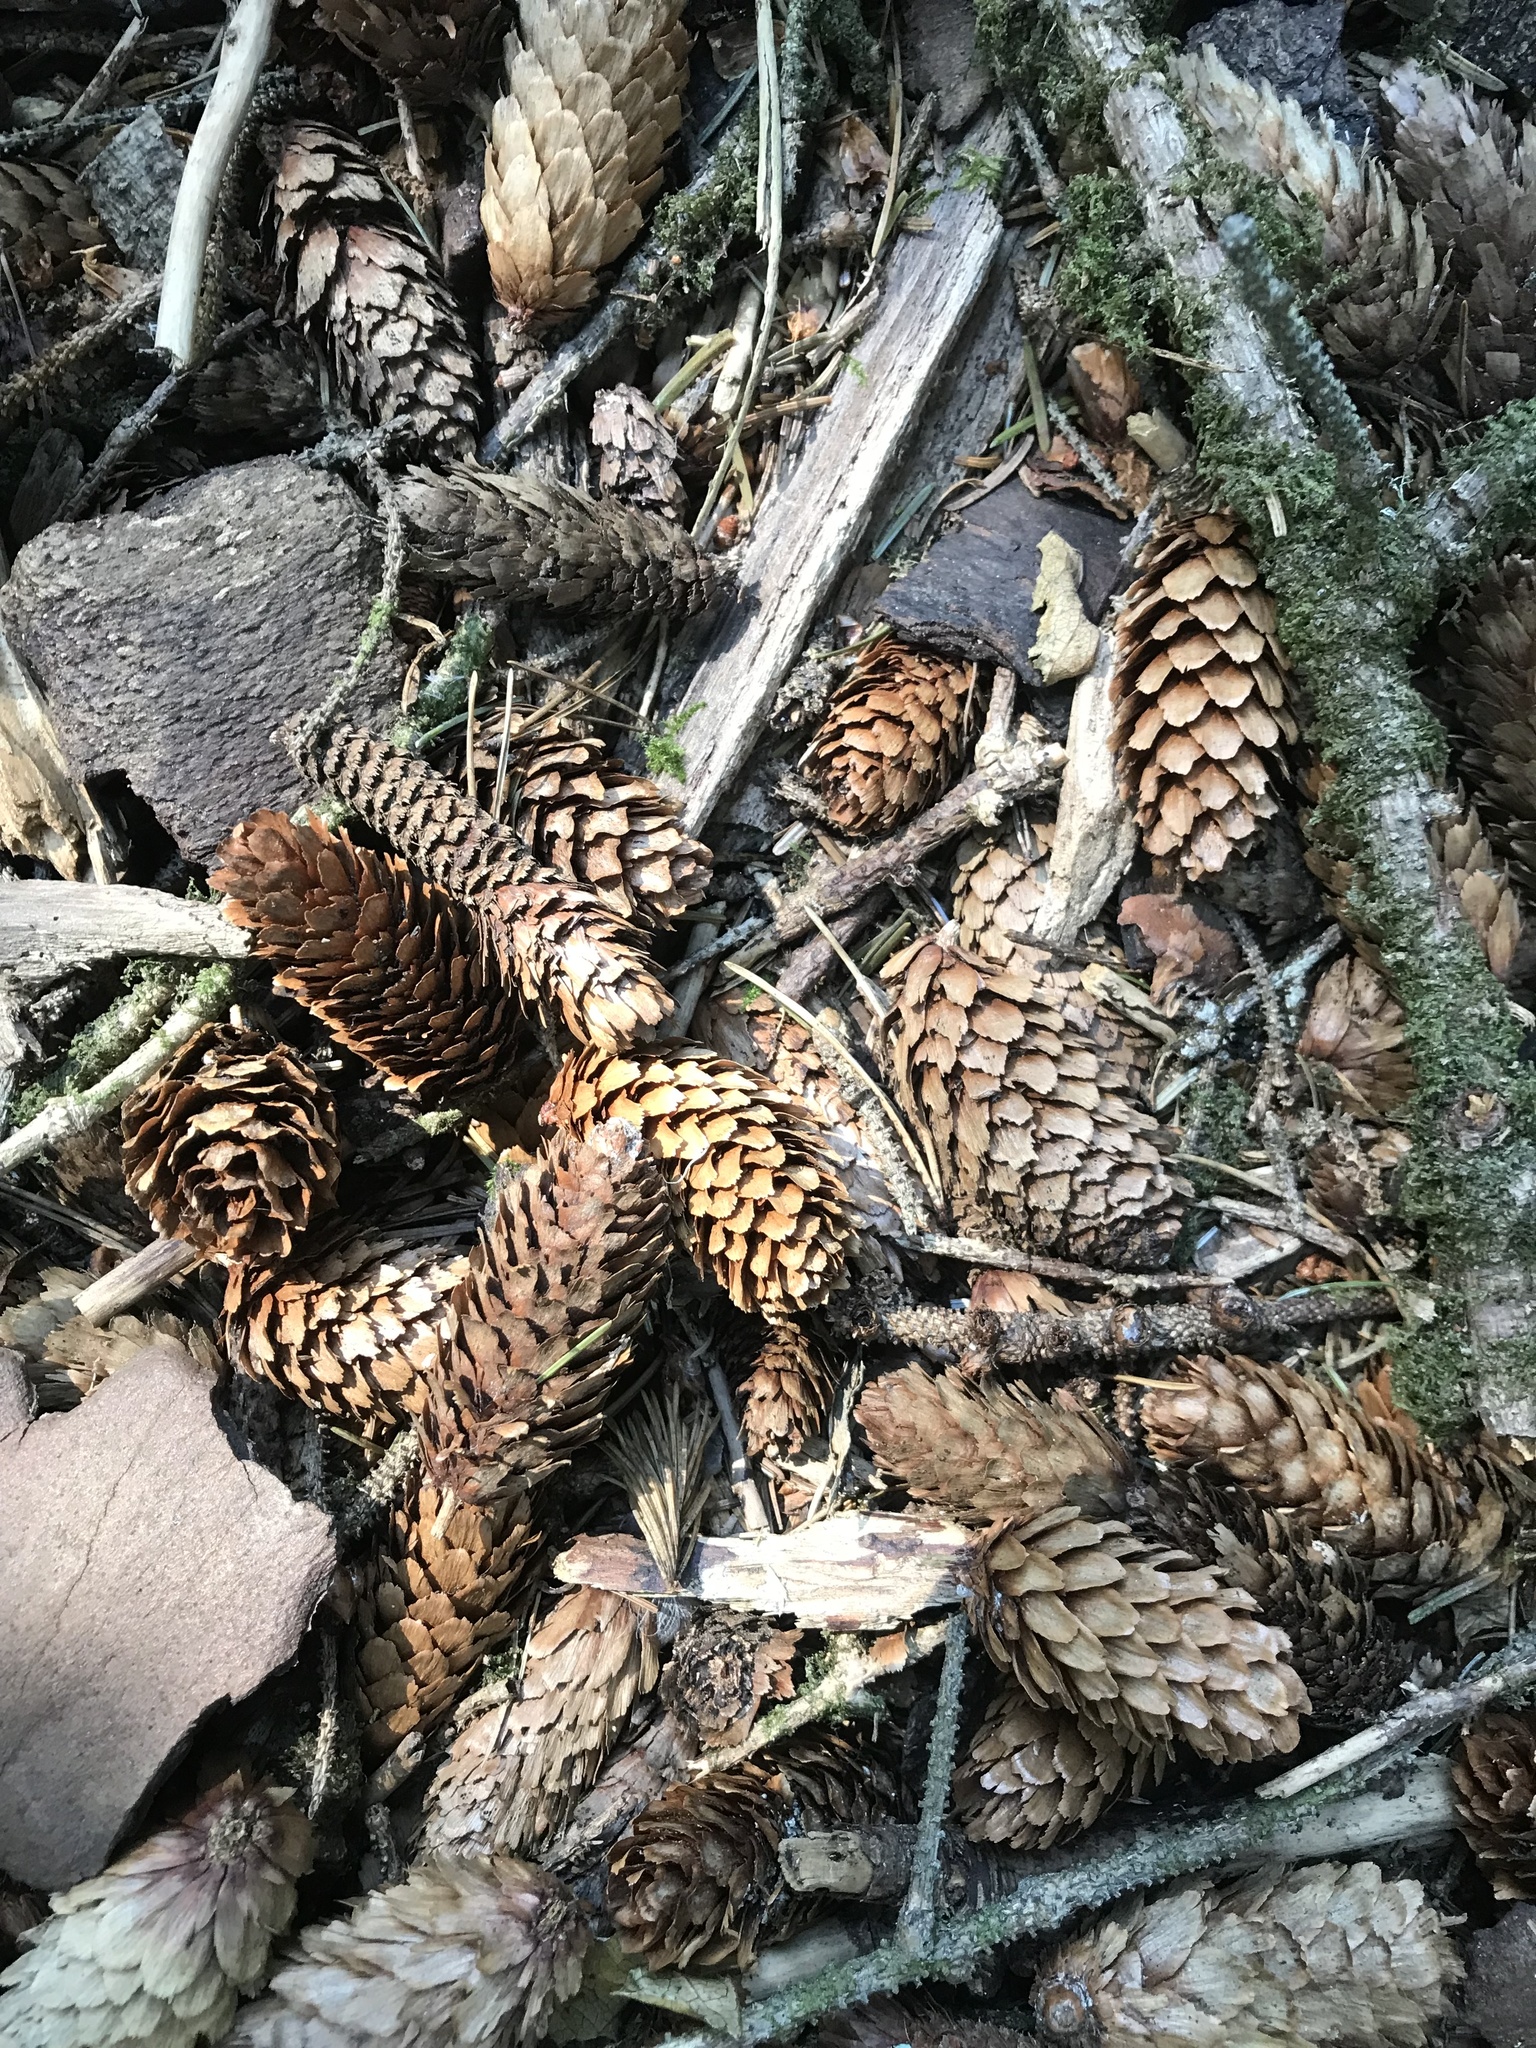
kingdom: Plantae
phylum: Tracheophyta
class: Pinopsida
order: Pinales
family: Pinaceae
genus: Picea
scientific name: Picea sitchensis
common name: Sitka spruce
